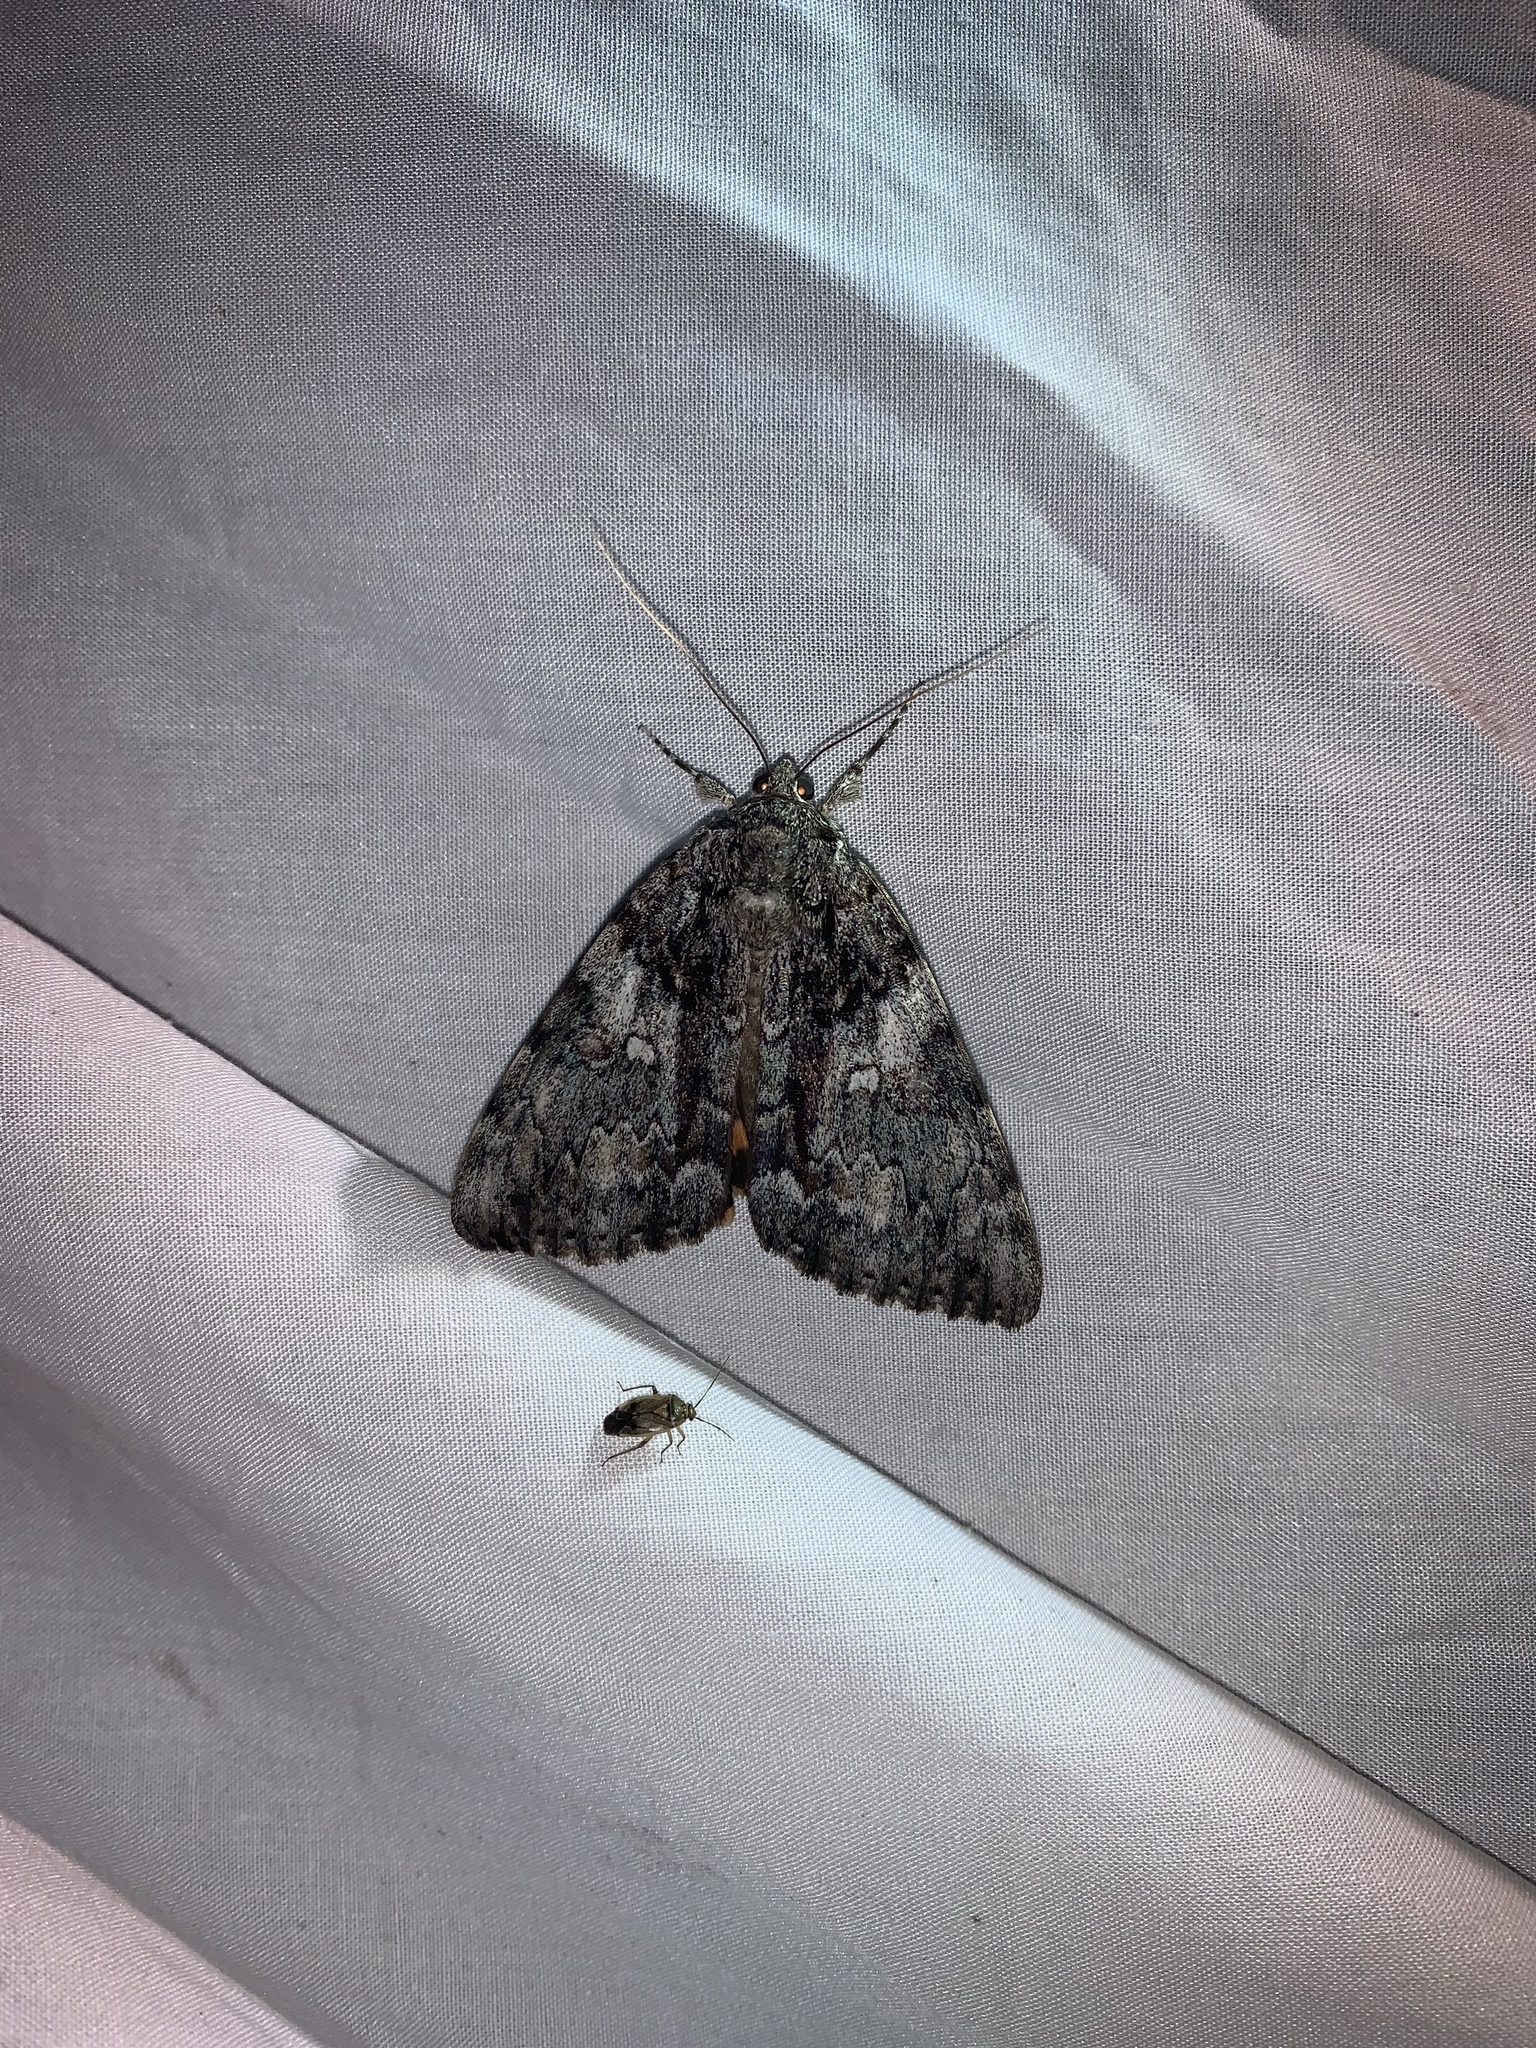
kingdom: Animalia
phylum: Arthropoda
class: Insecta
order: Lepidoptera
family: Erebidae
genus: Catocala
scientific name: Catocala palaeogama
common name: Oldwife underwing
